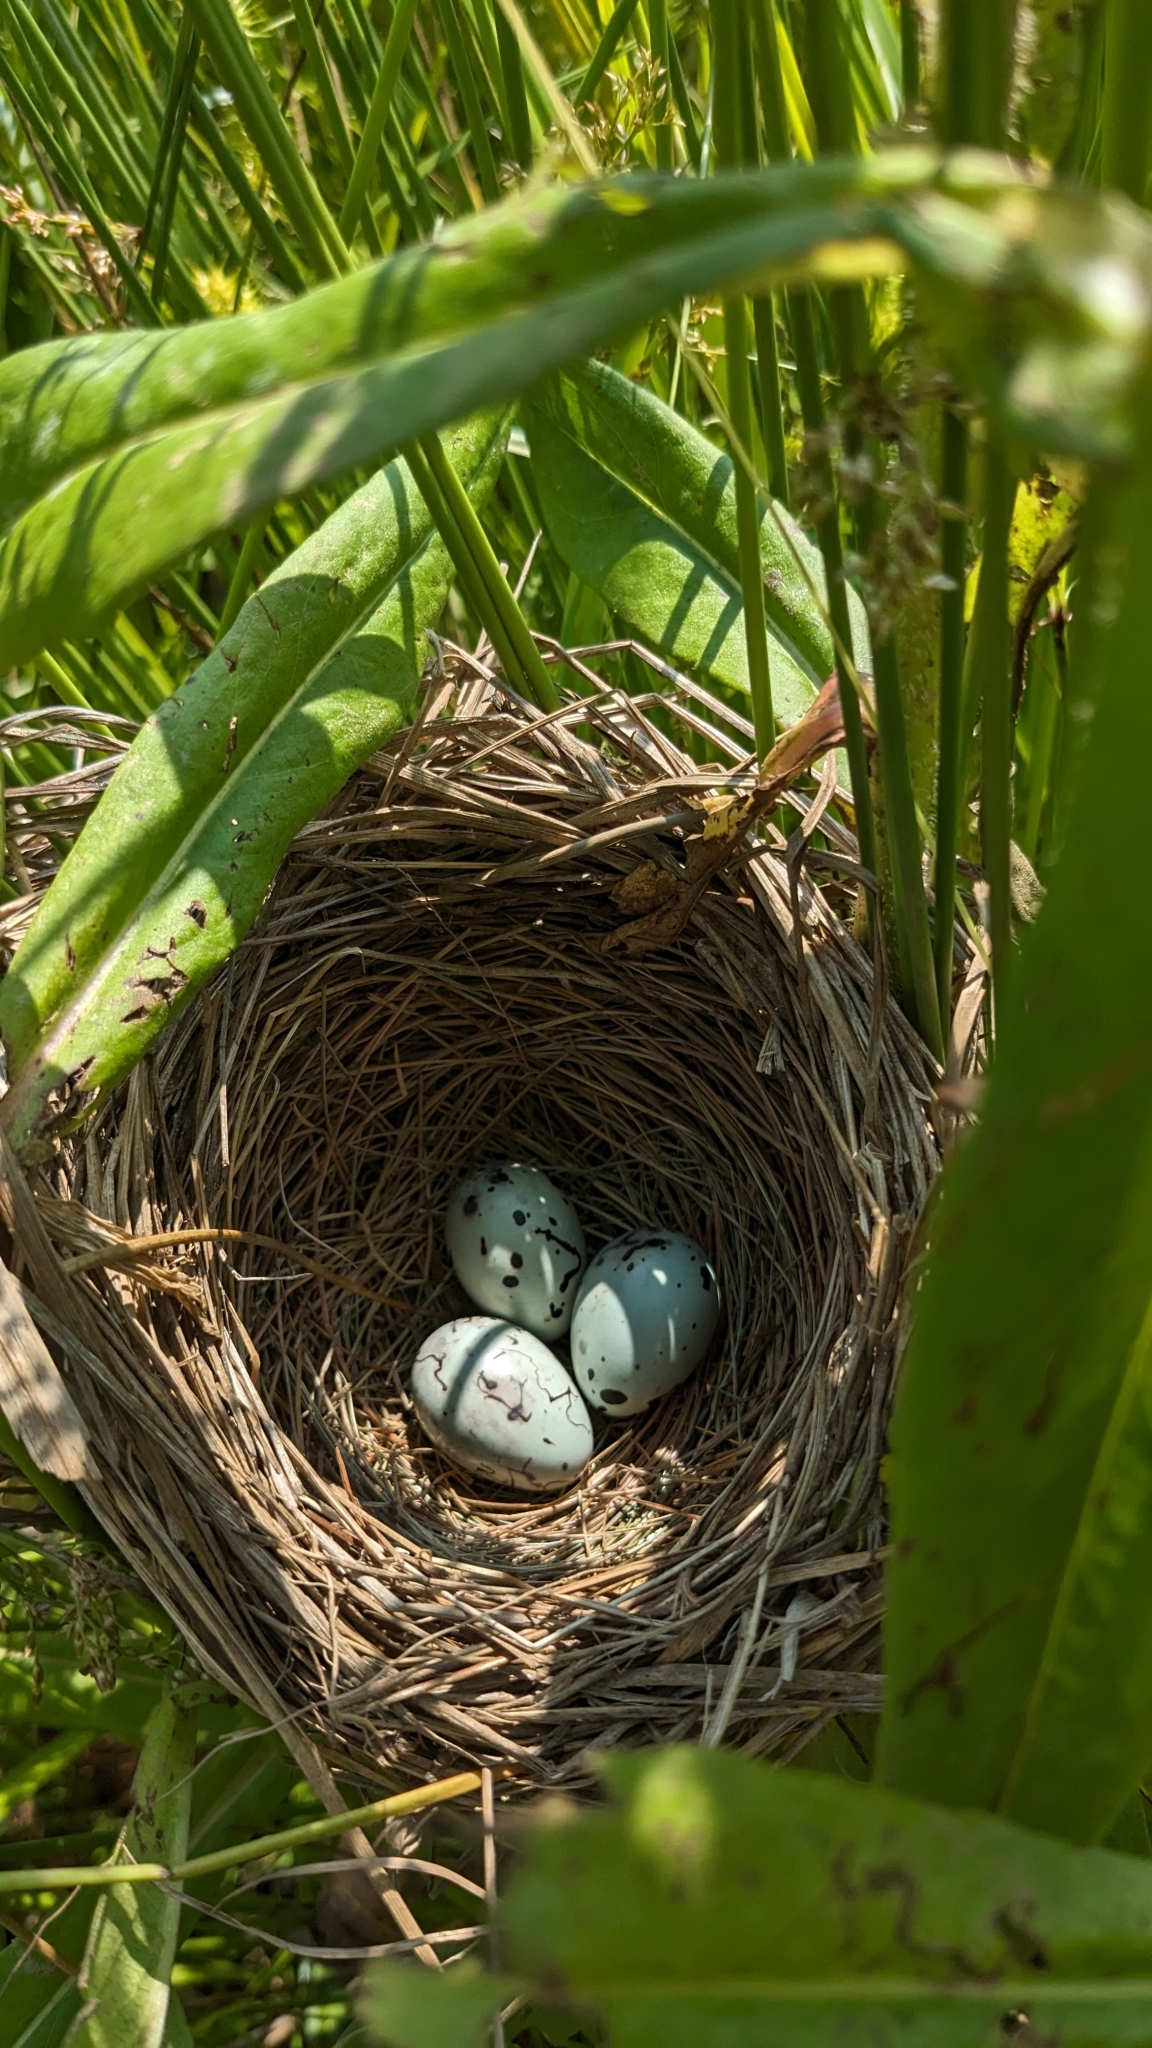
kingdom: Animalia
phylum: Chordata
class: Aves
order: Passeriformes
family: Icteridae
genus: Agelaius
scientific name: Agelaius phoeniceus
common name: Red-winged blackbird
